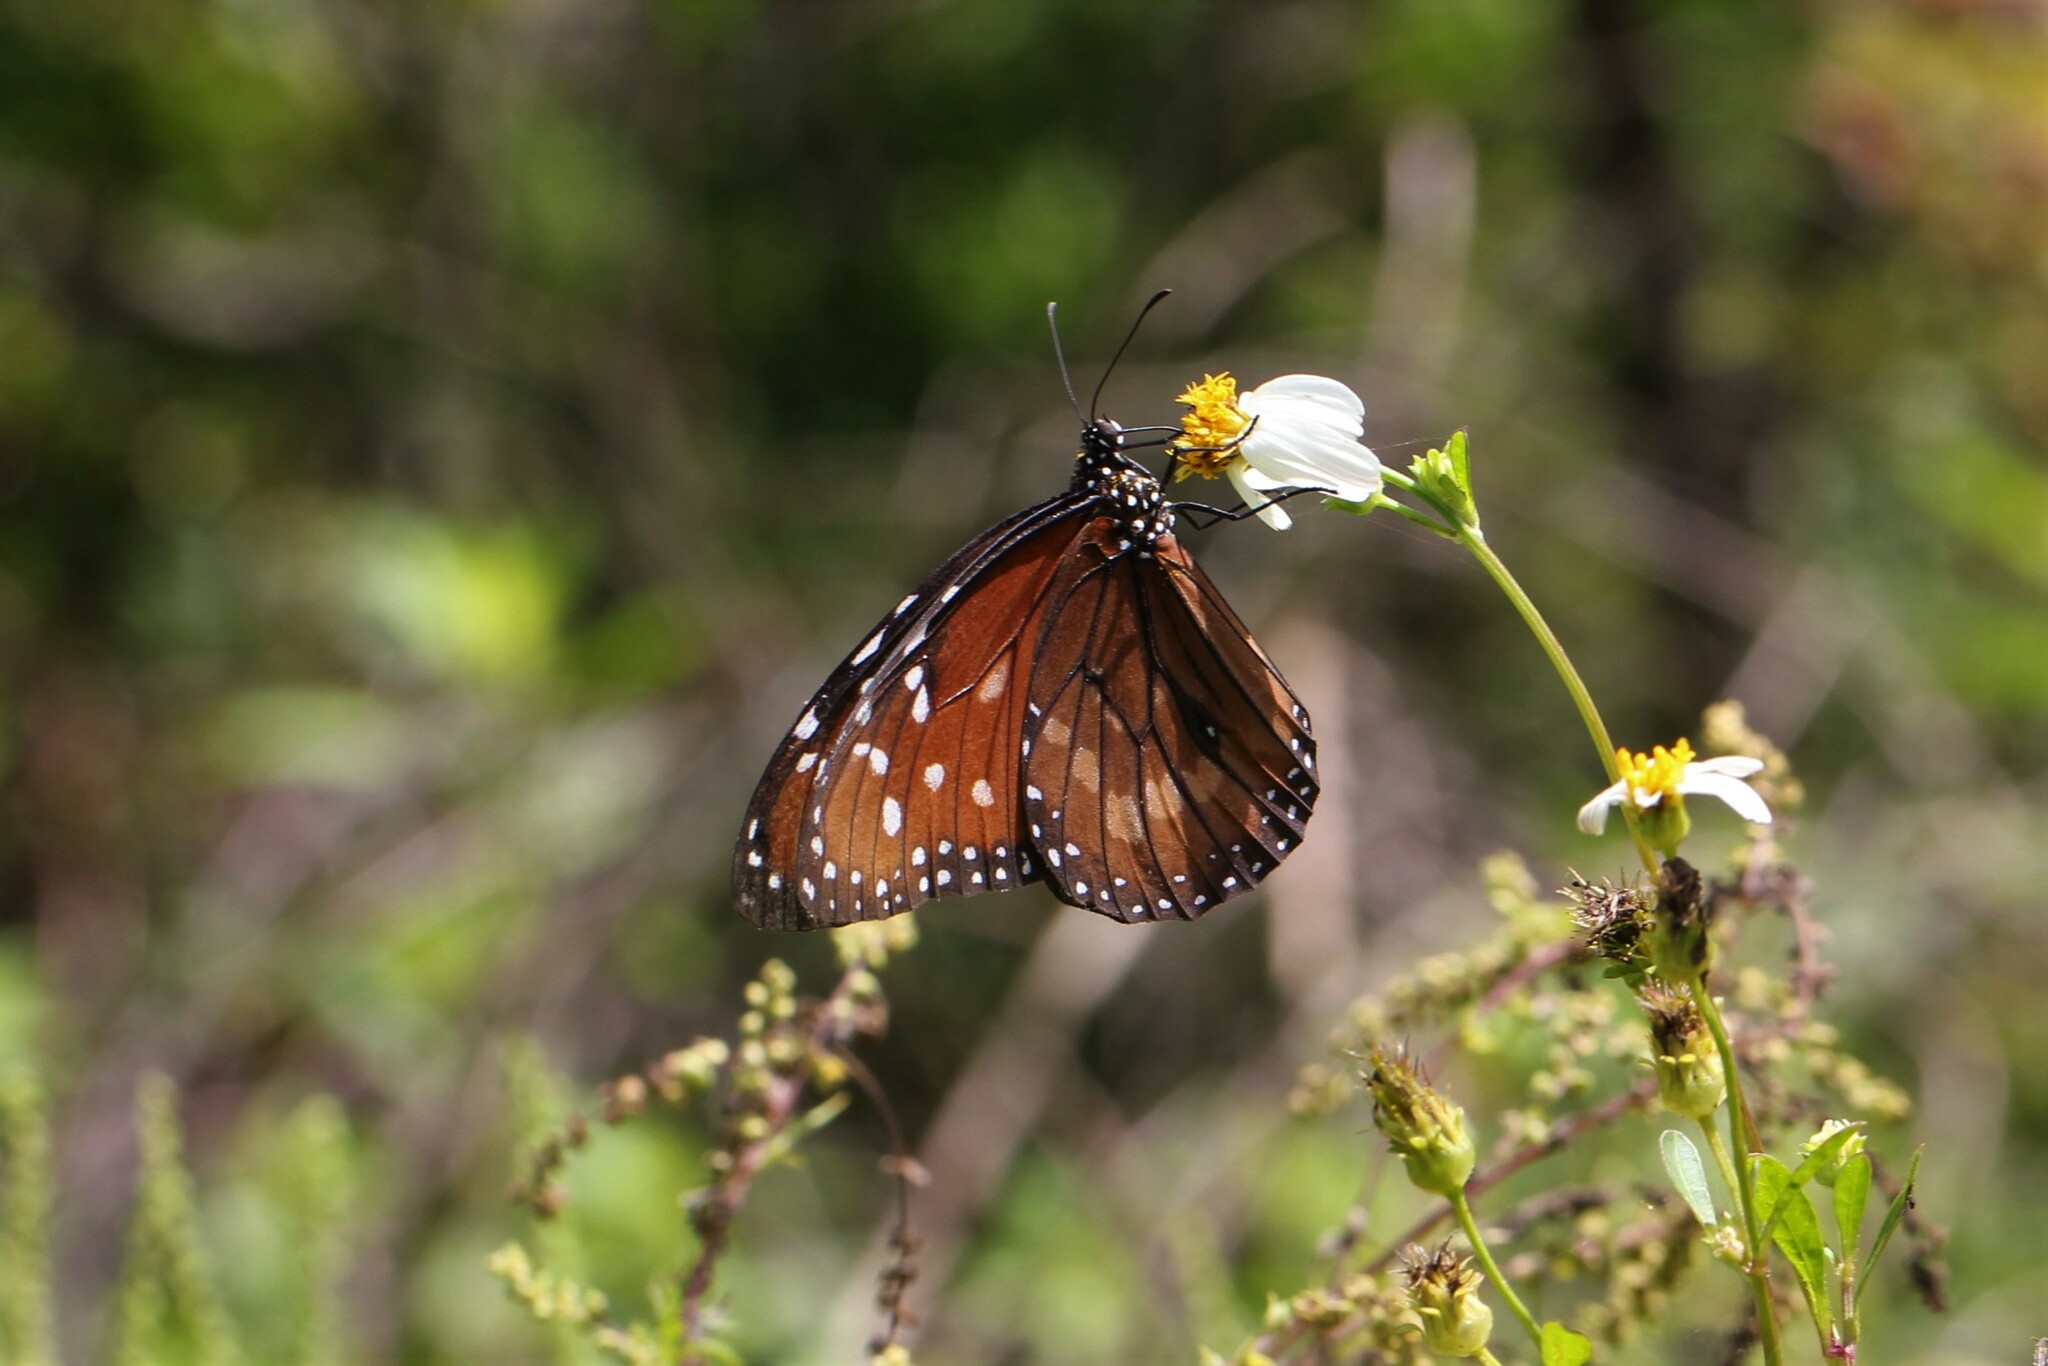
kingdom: Animalia
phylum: Arthropoda
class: Insecta
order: Lepidoptera
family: Nymphalidae
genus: Danaus
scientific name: Danaus eresimus
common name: Soldier
